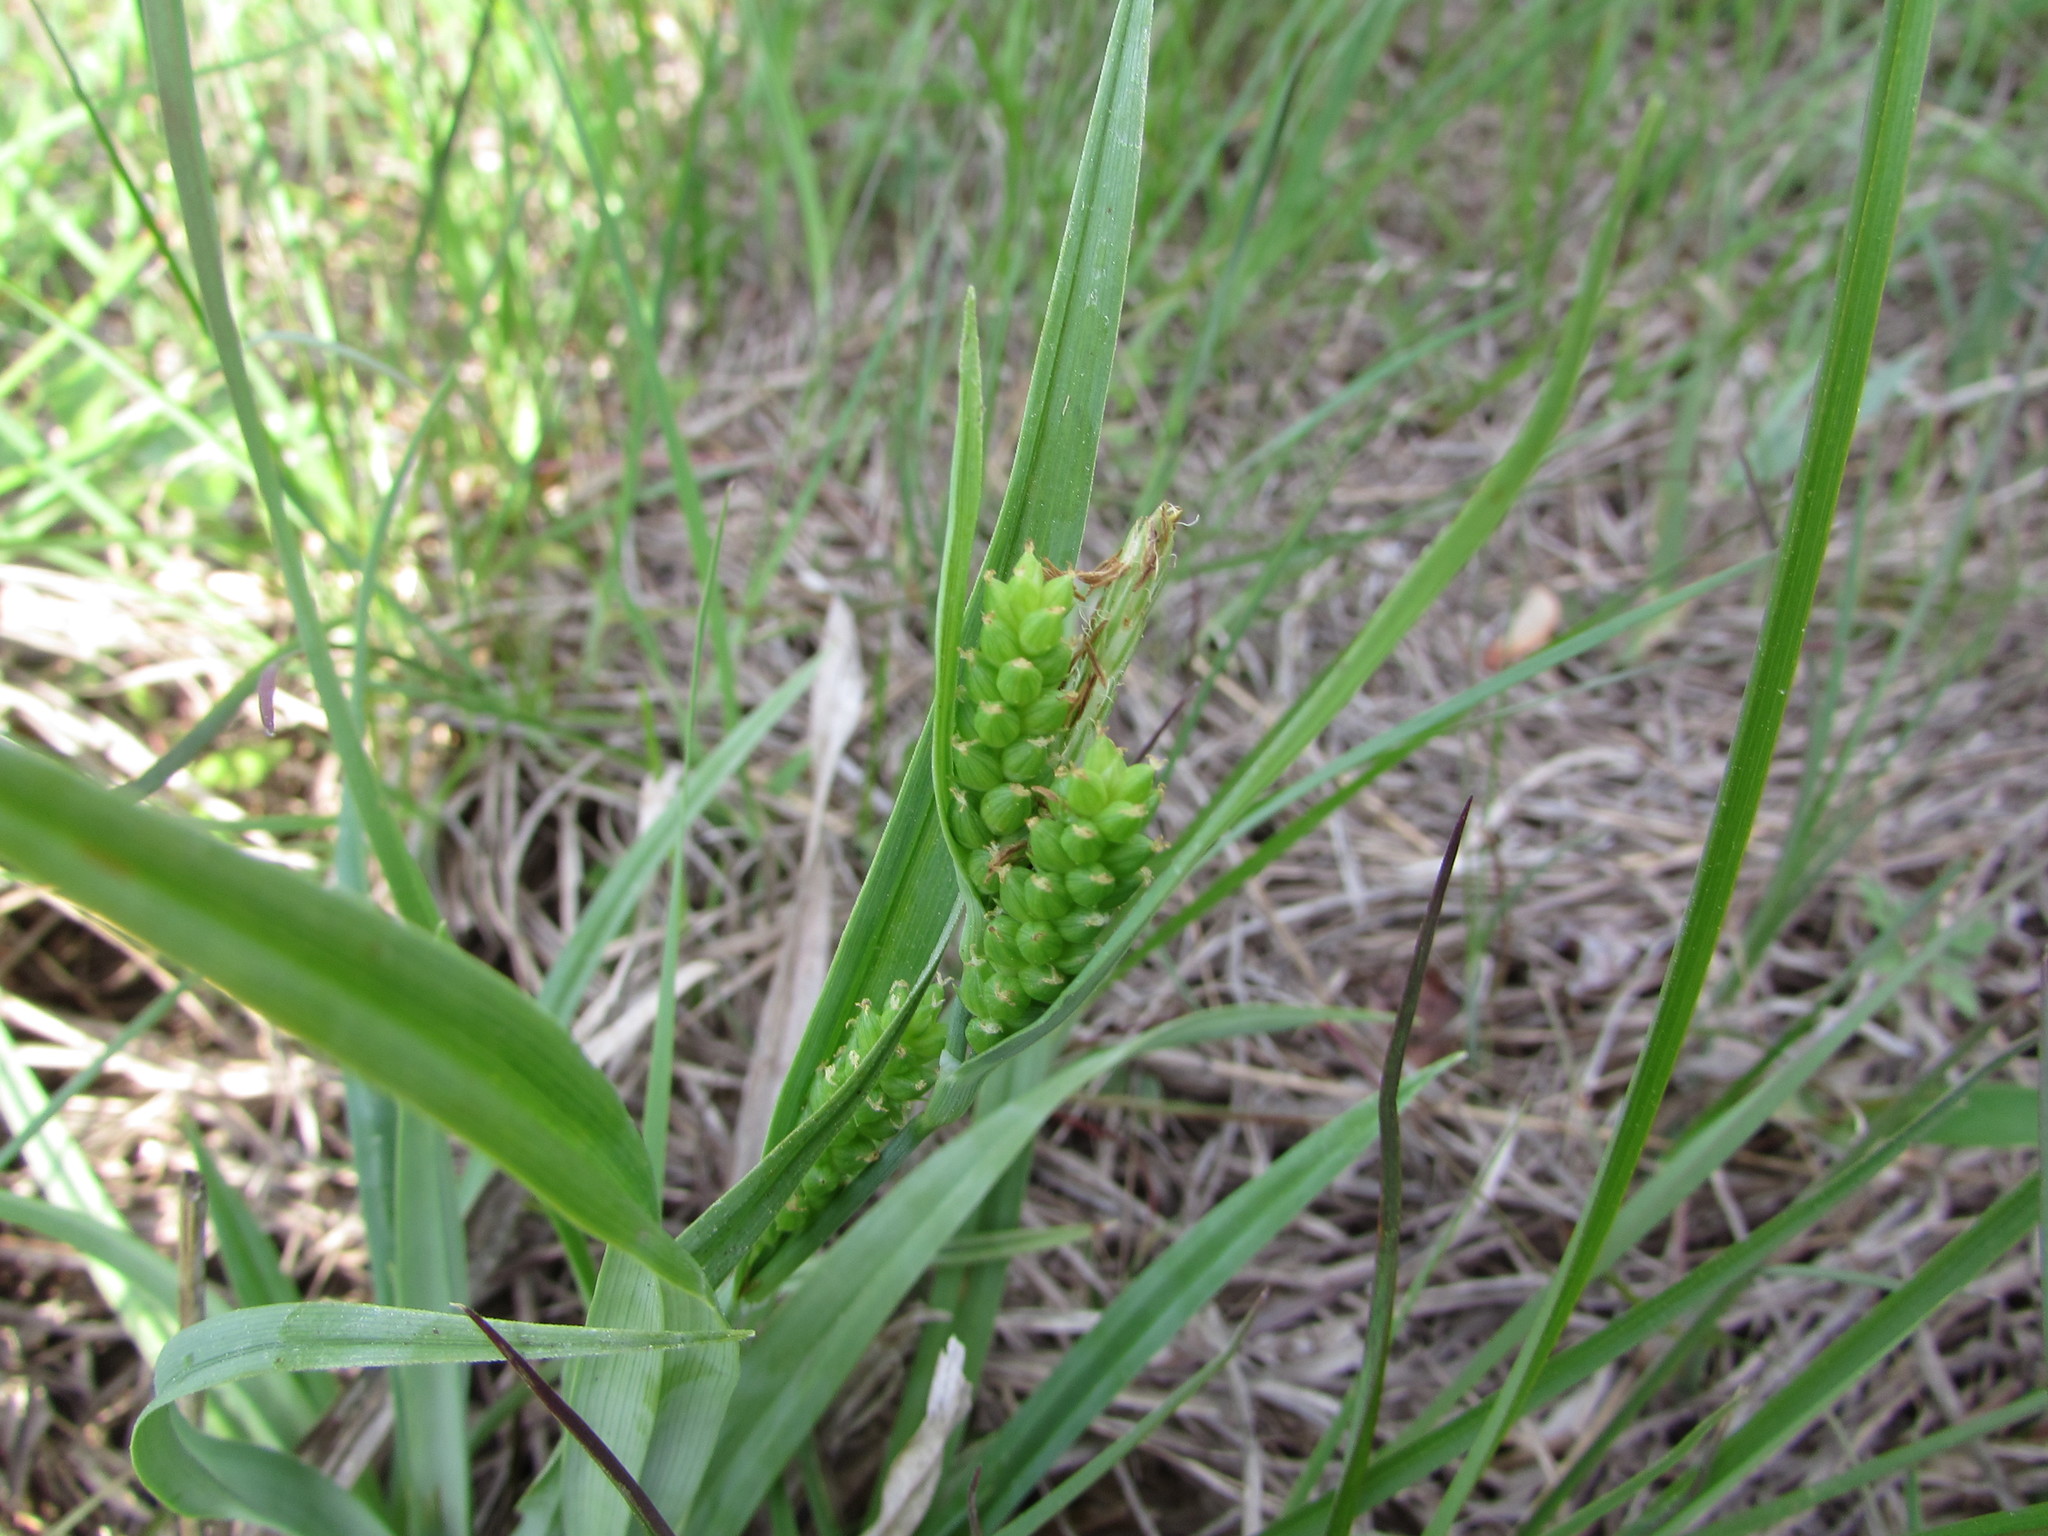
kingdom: Plantae
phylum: Tracheophyta
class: Liliopsida
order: Poales
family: Cyperaceae
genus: Carex
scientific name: Carex glaucodea
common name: Blue sedge
